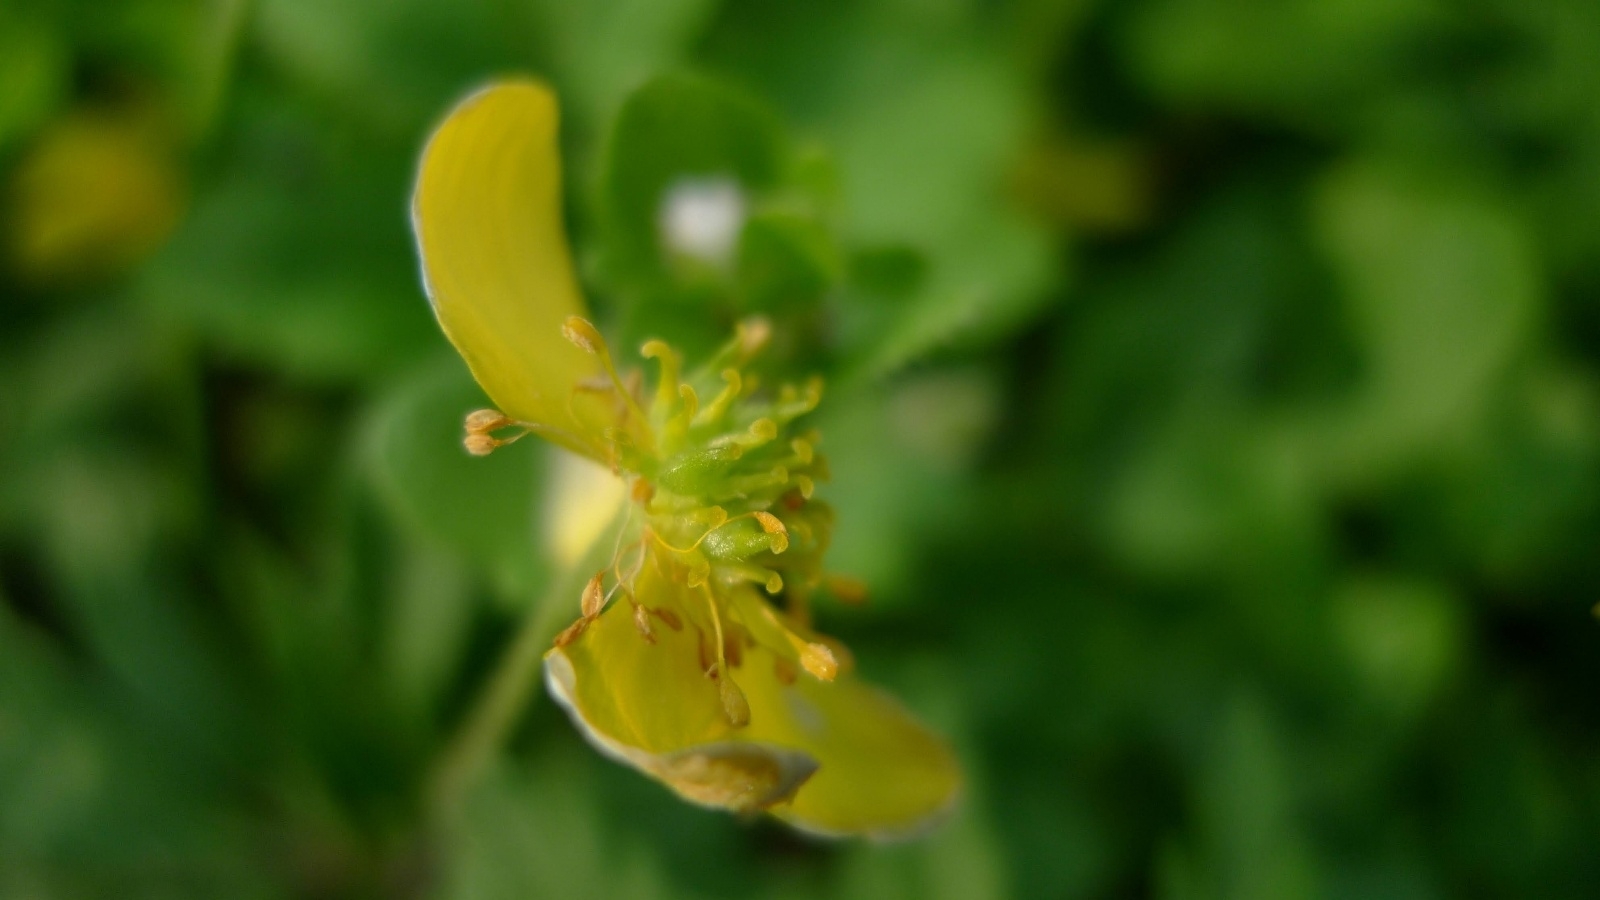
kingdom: Plantae
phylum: Tracheophyta
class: Magnoliopsida
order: Ranunculales
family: Ranunculaceae
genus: Anemone
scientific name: Anemone ranunculoides
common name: Yellow anemone
